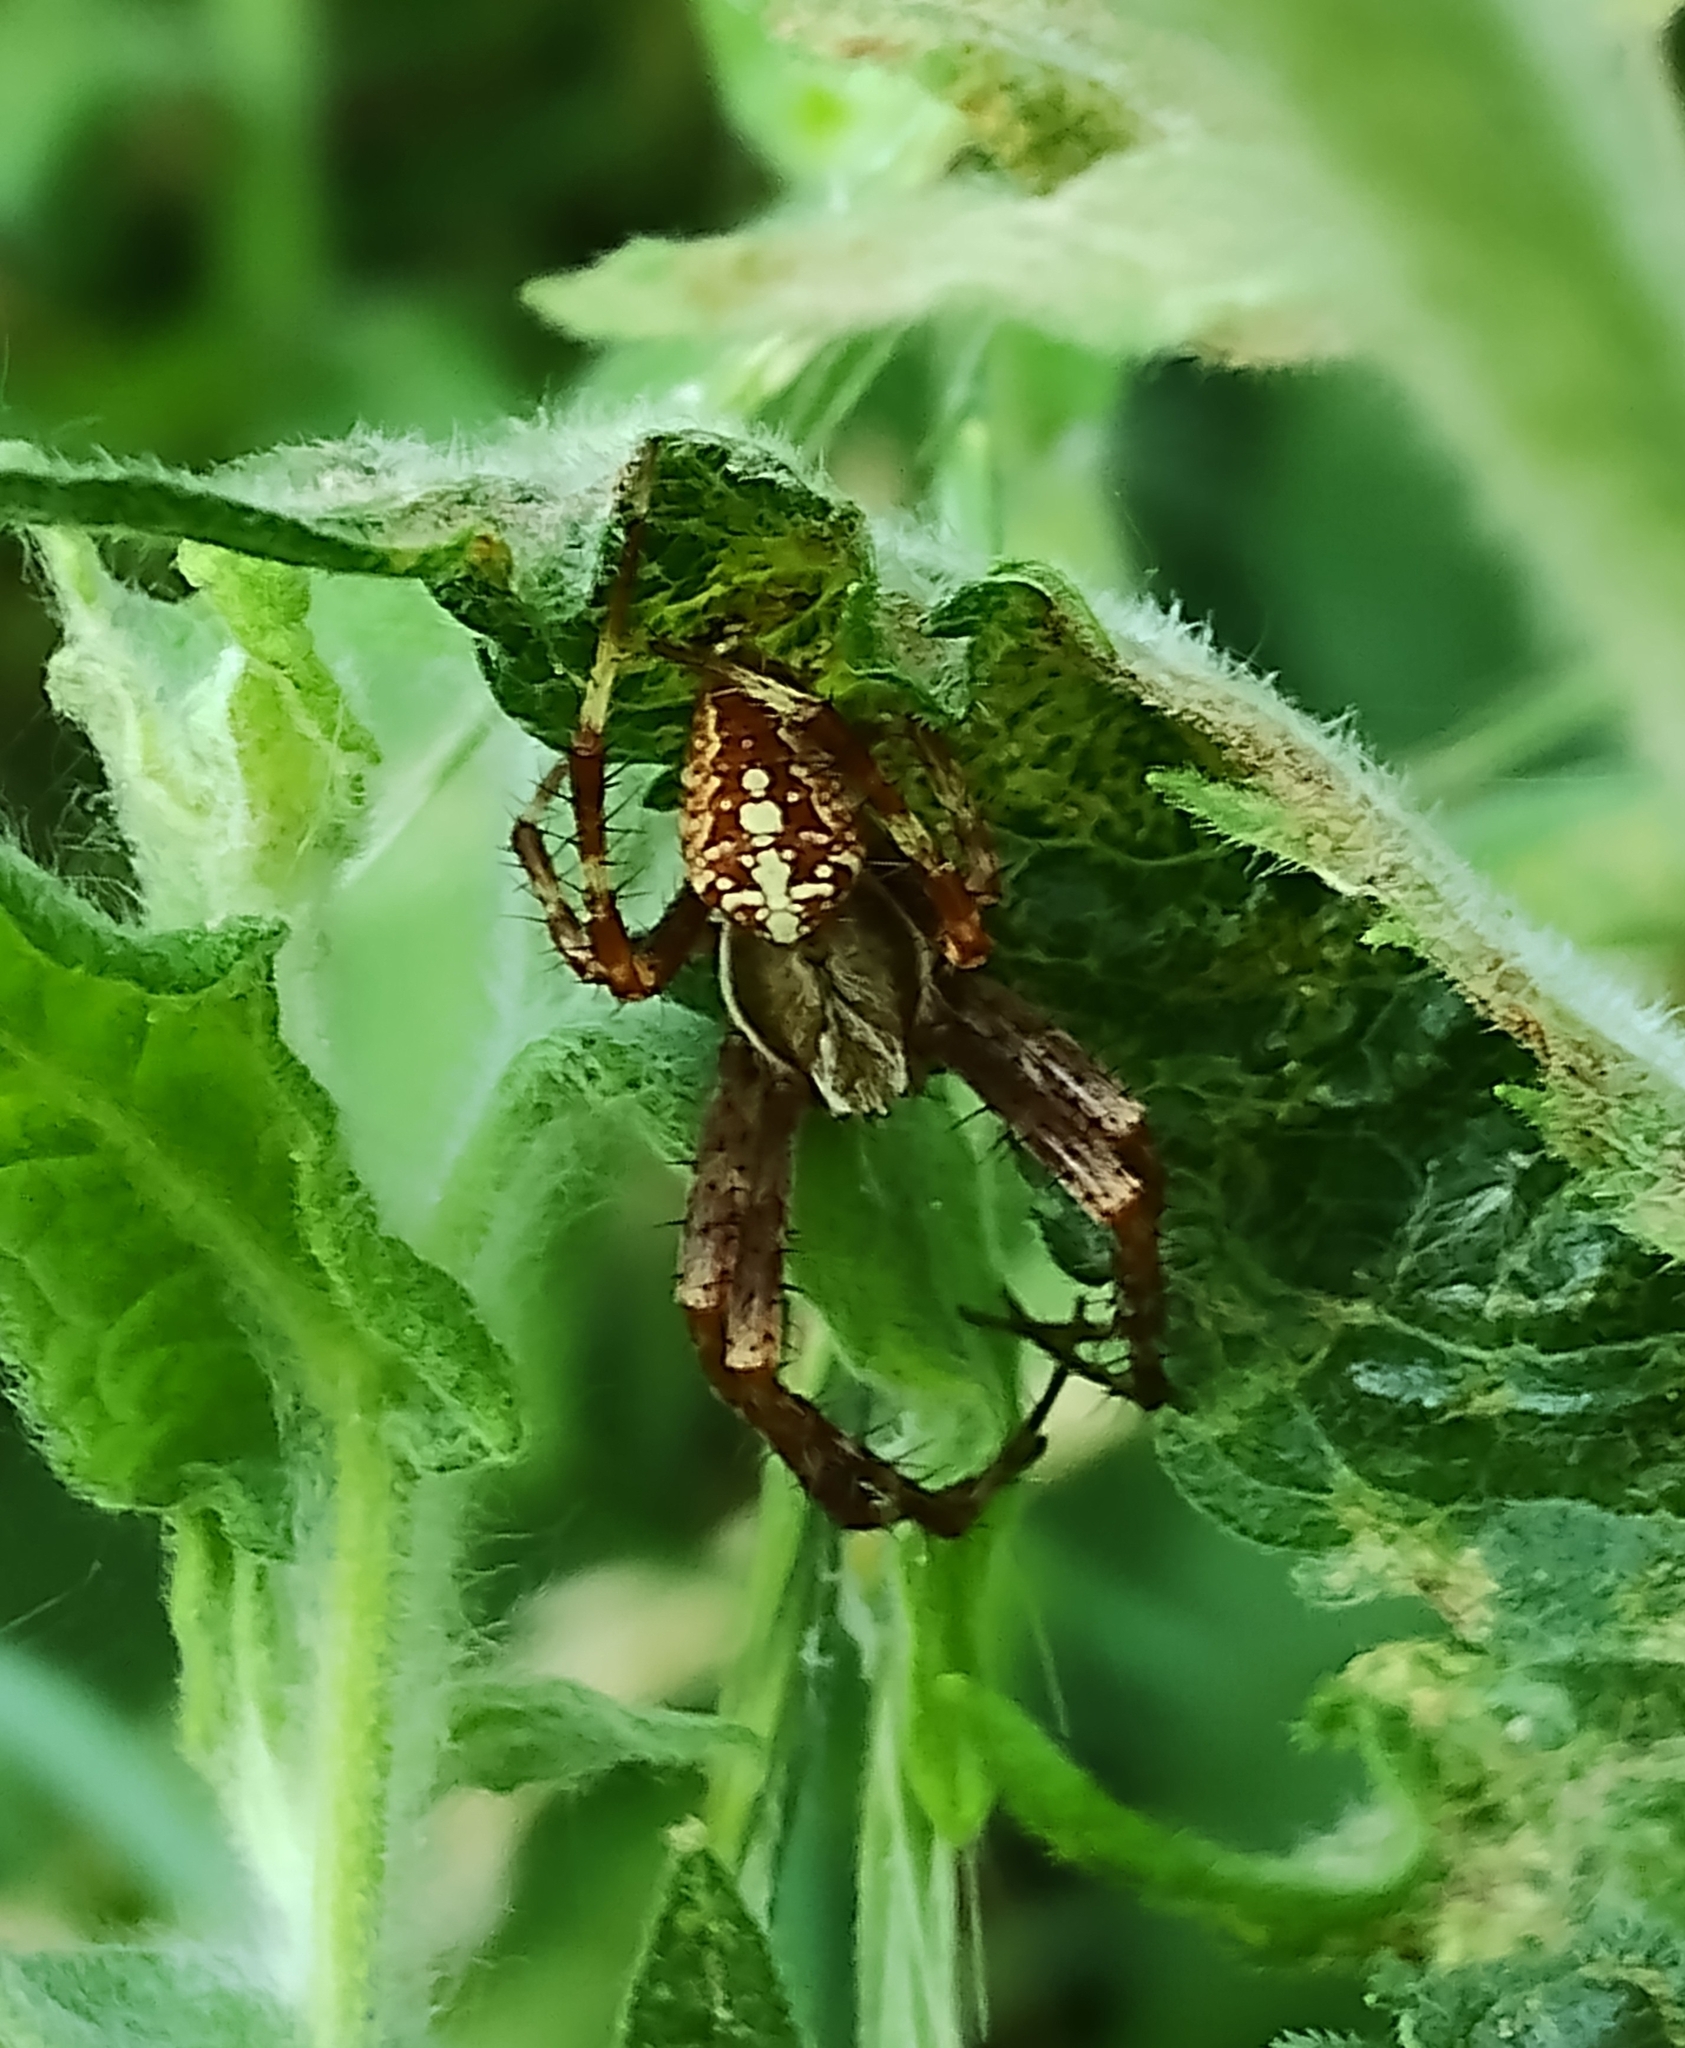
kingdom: Animalia
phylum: Arthropoda
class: Arachnida
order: Araneae
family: Araneidae
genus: Araneus
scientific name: Araneus diadematus
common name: Cross orbweaver
